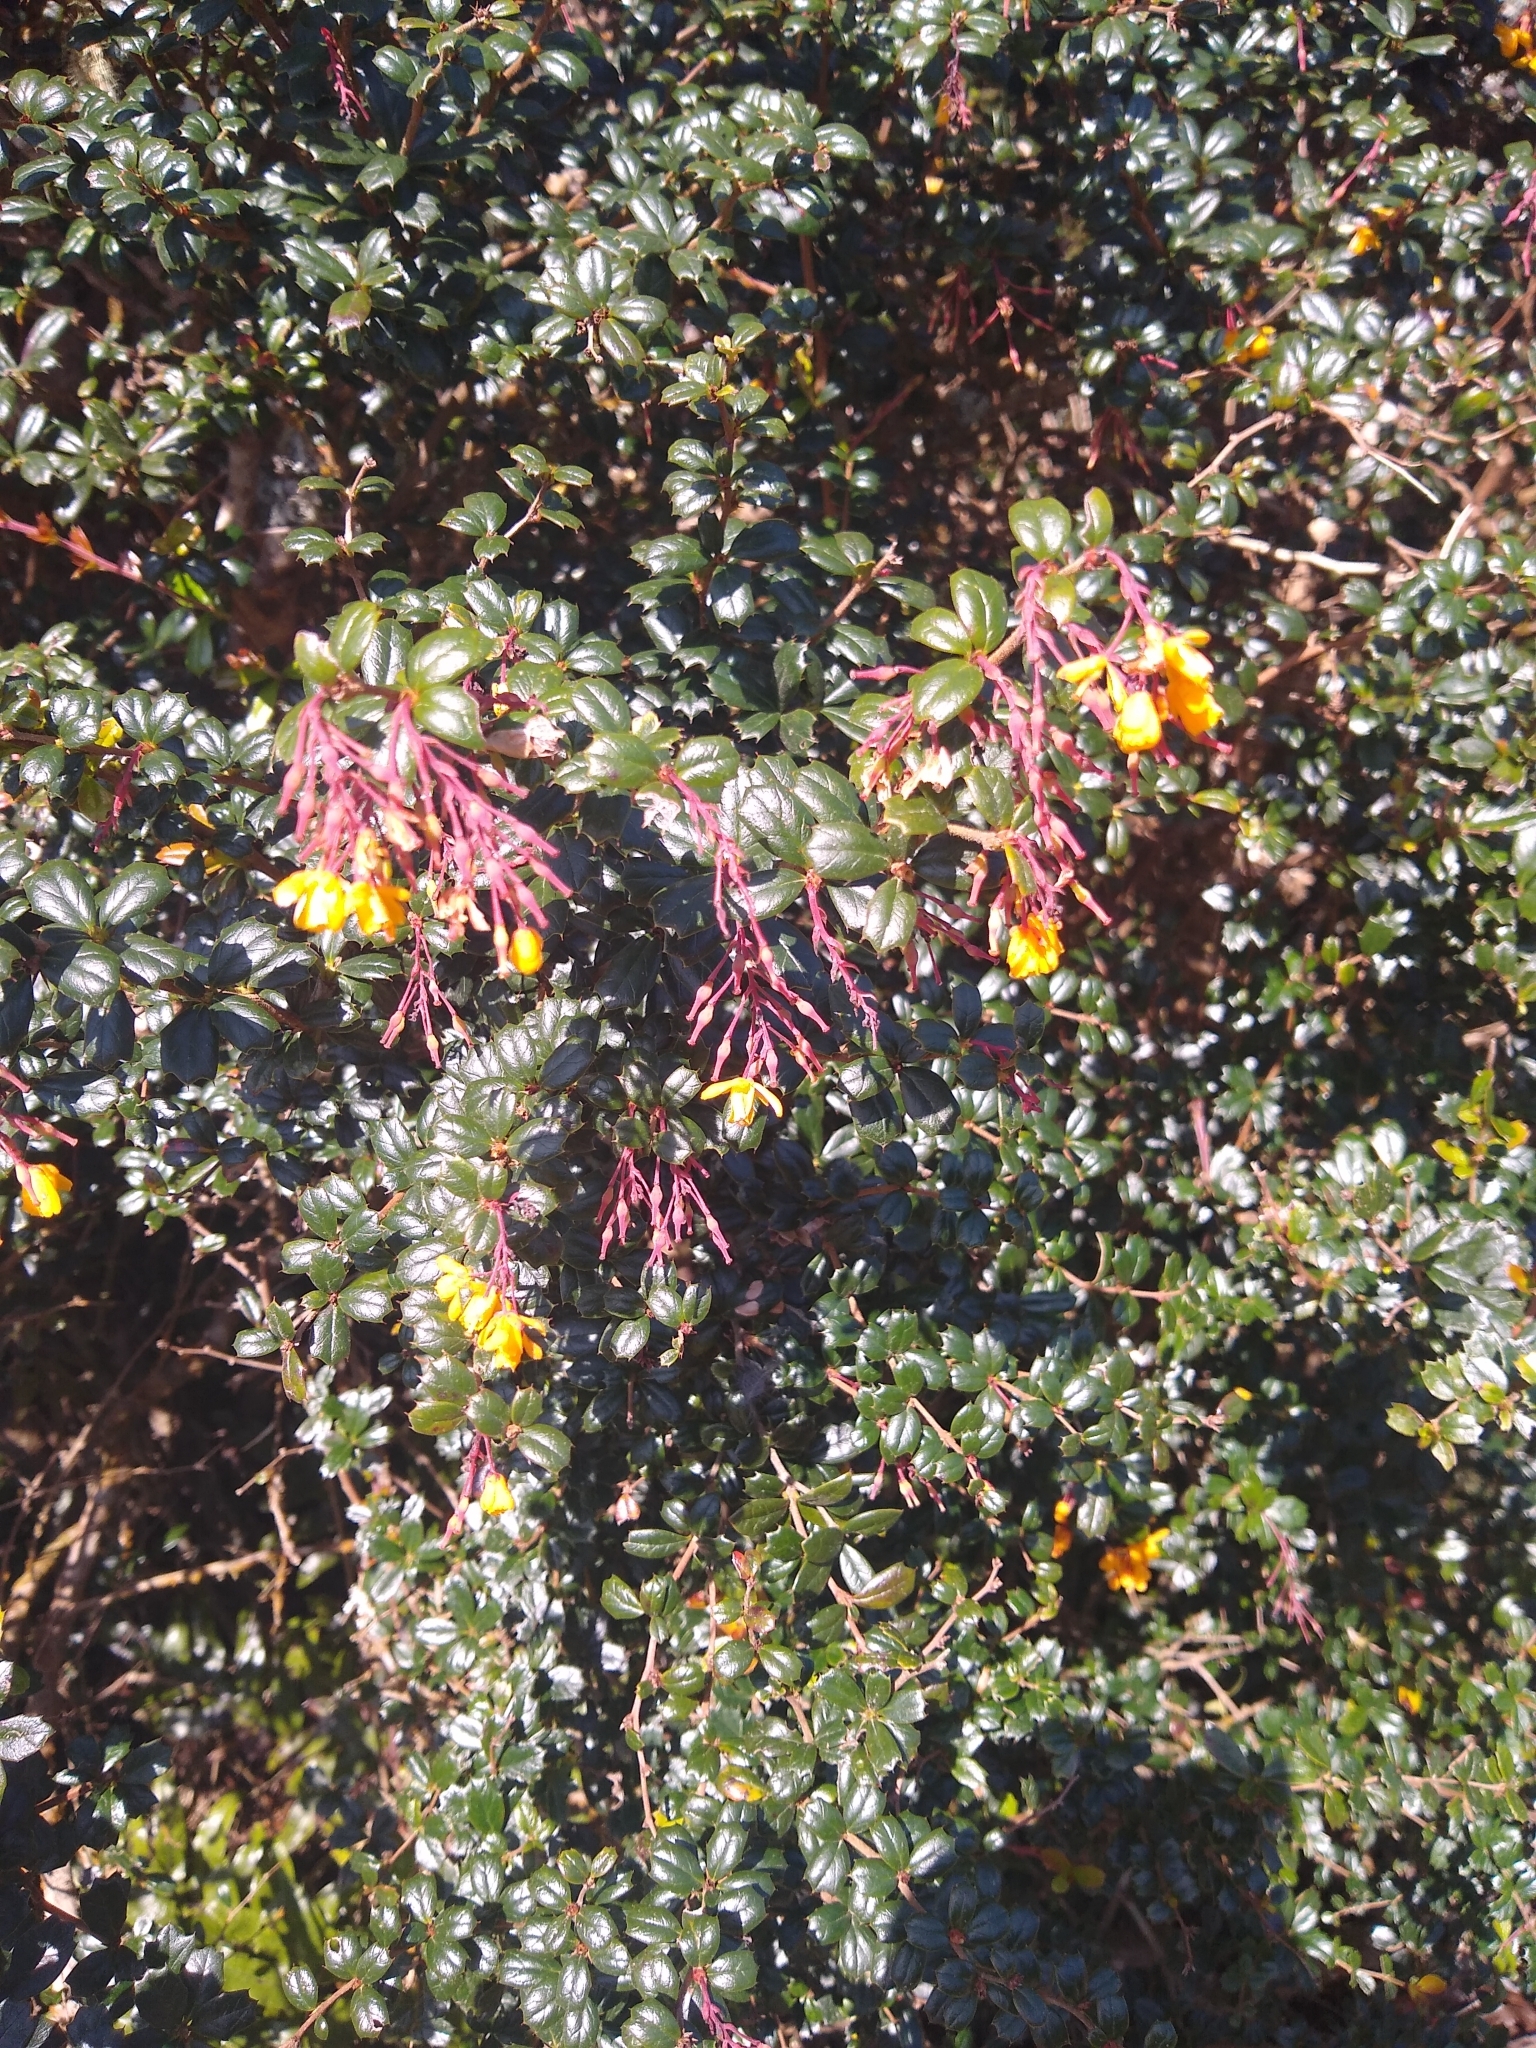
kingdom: Plantae
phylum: Tracheophyta
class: Magnoliopsida
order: Ranunculales
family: Berberidaceae
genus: Berberis
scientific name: Berberis darwinii
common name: Darwin's barberry
